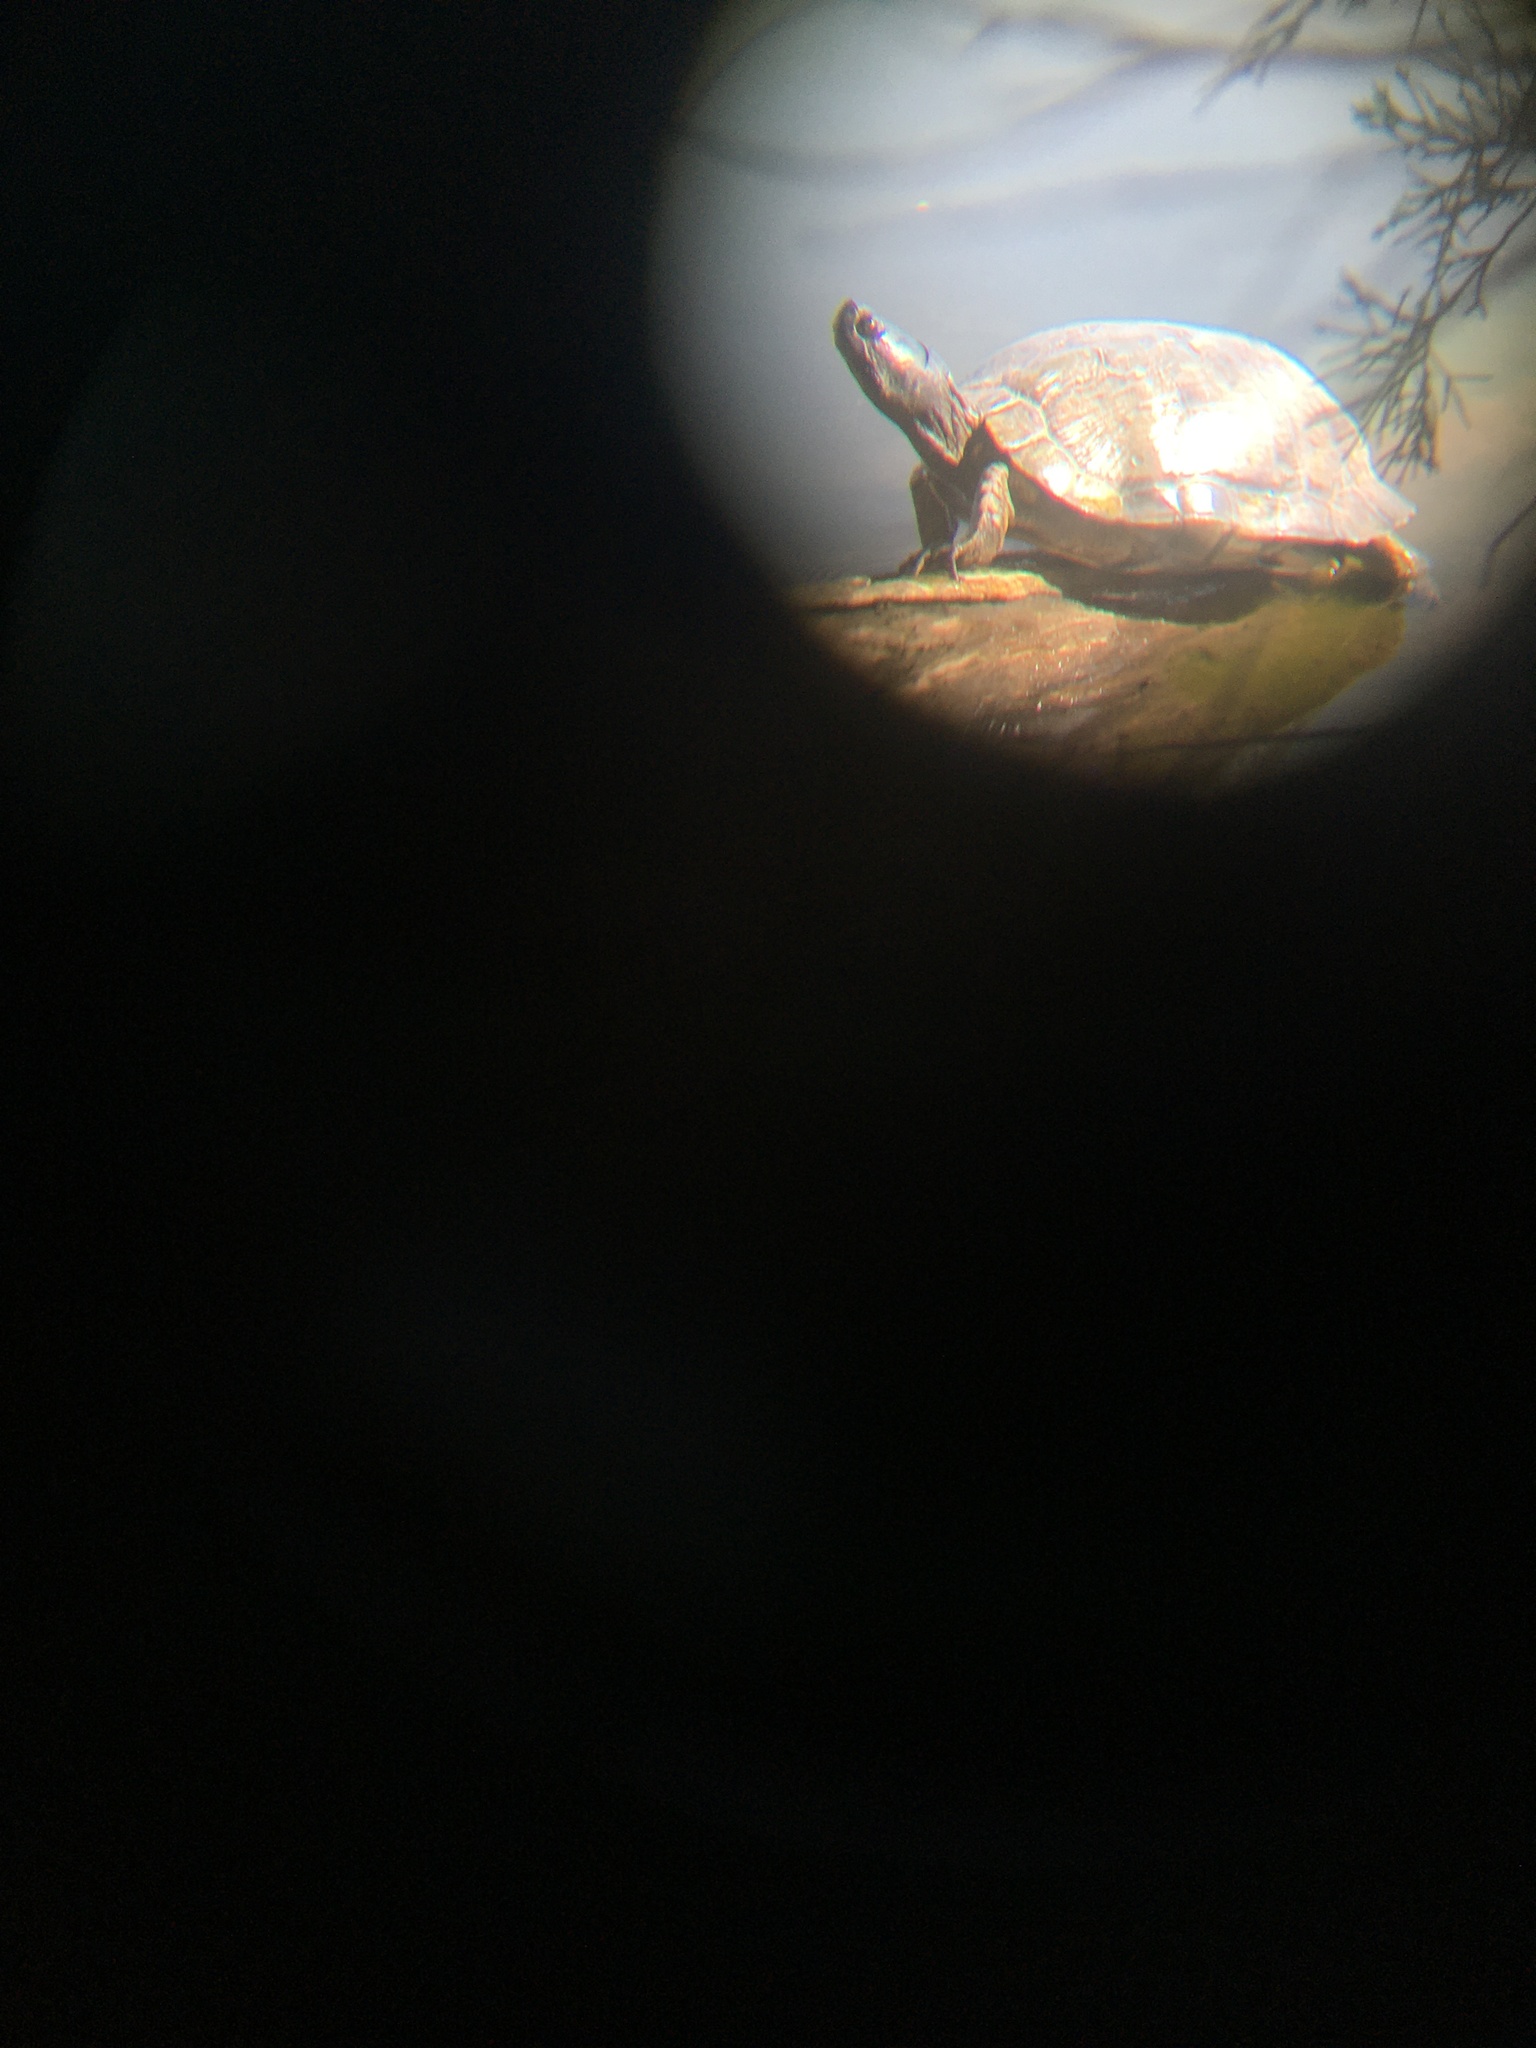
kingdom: Animalia
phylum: Chordata
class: Testudines
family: Emydidae
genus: Trachemys
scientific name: Trachemys scripta
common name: Slider
